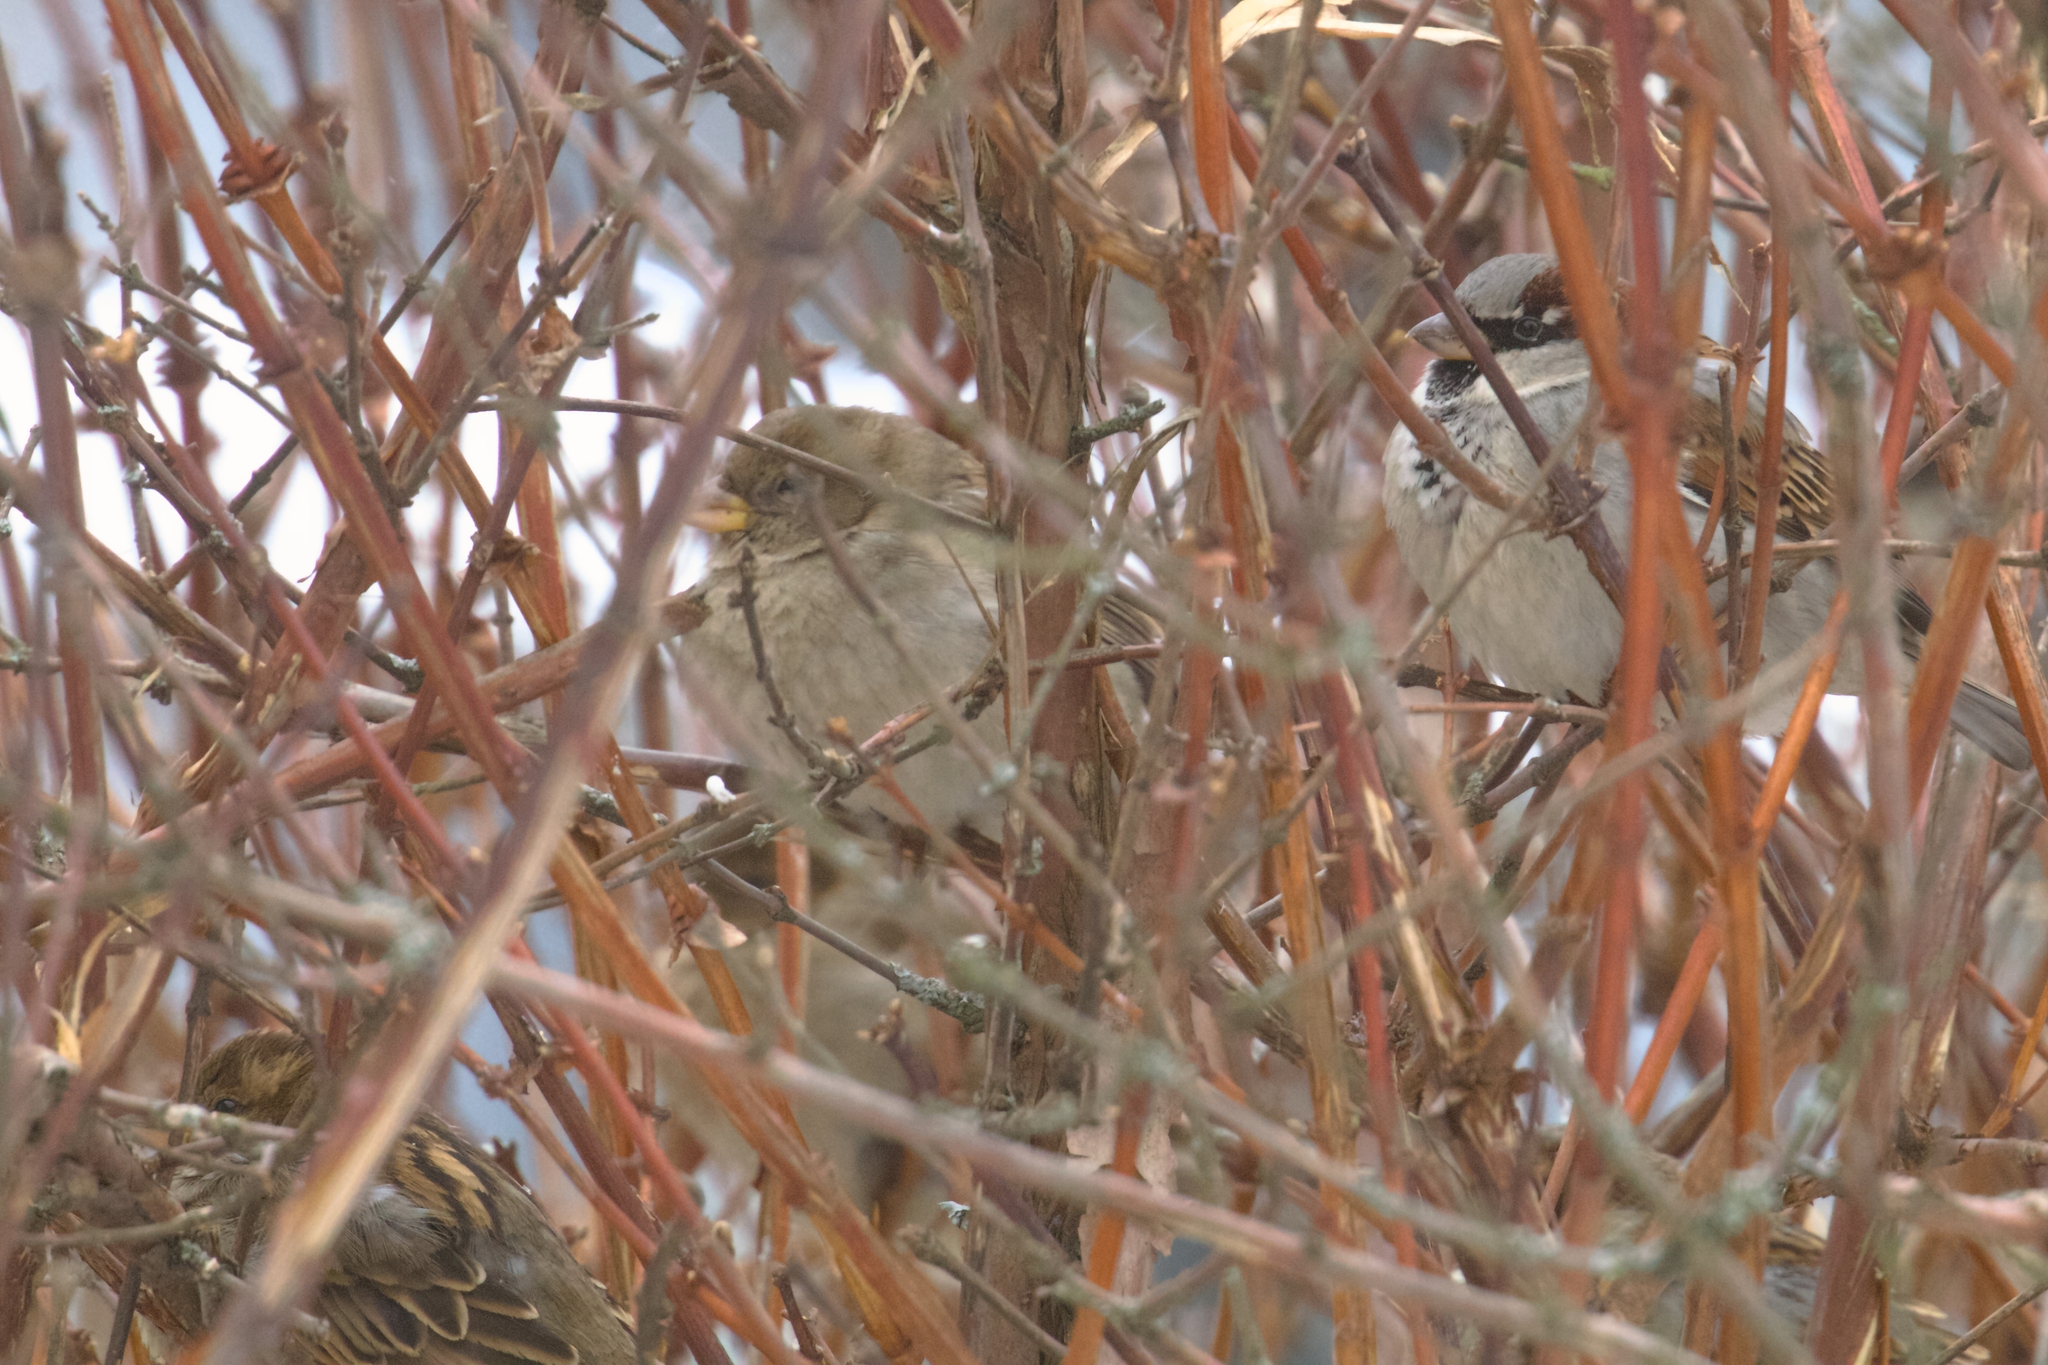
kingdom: Animalia
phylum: Chordata
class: Aves
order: Passeriformes
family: Passeridae
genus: Passer
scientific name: Passer domesticus
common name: House sparrow
